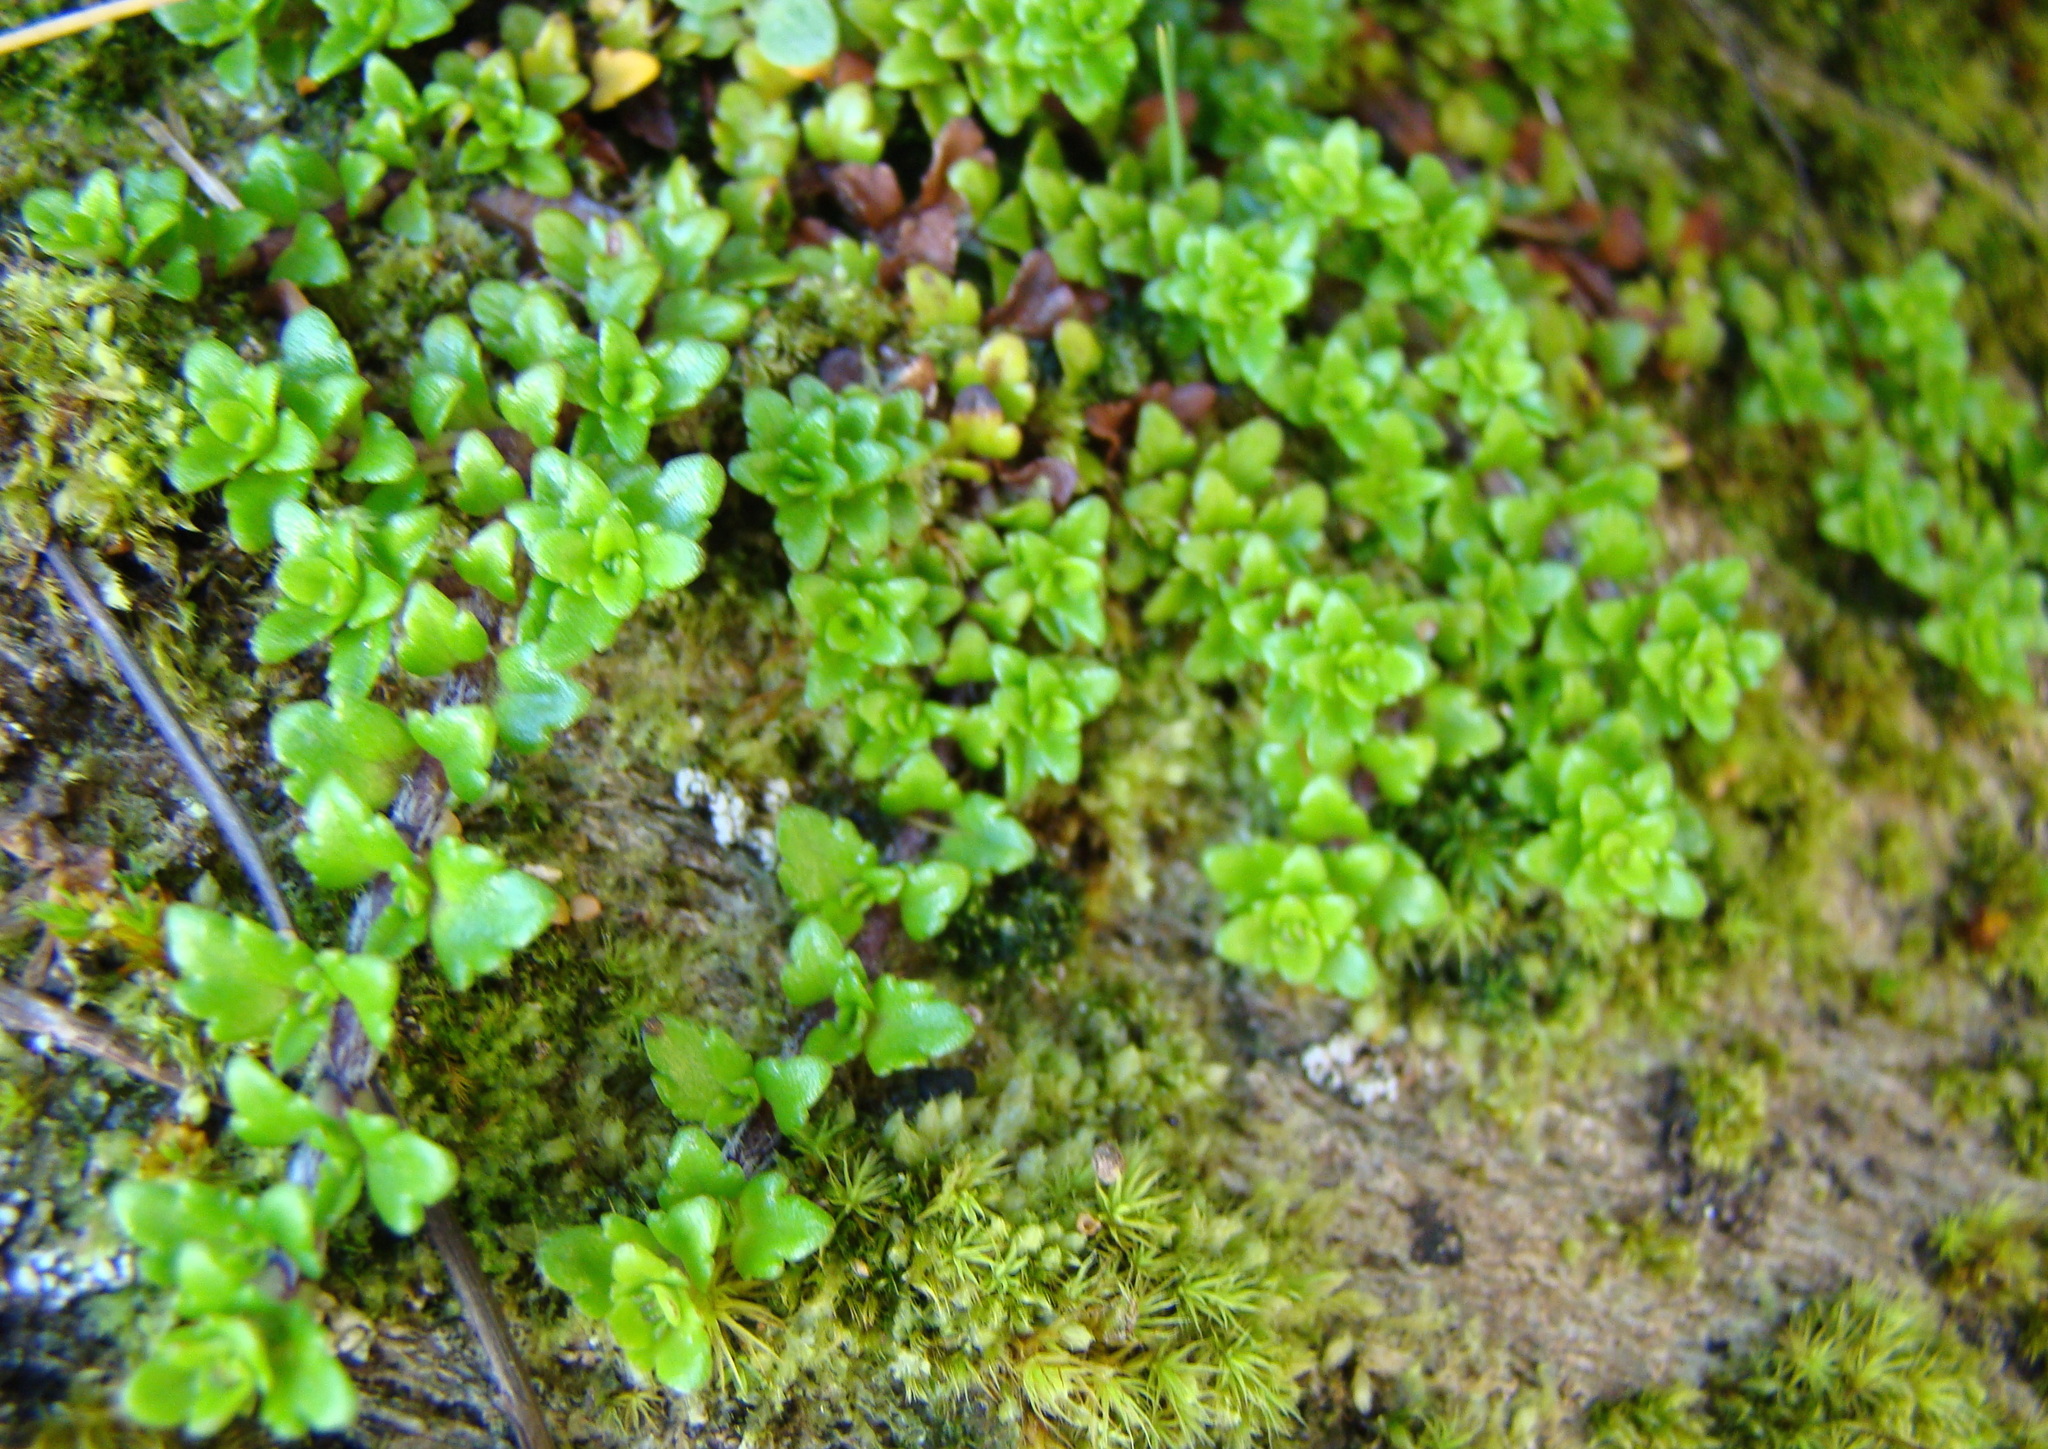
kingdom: Plantae
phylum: Tracheophyta
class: Magnoliopsida
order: Lamiales
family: Plantaginaceae
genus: Ourisia
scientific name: Ourisia caespitosa
